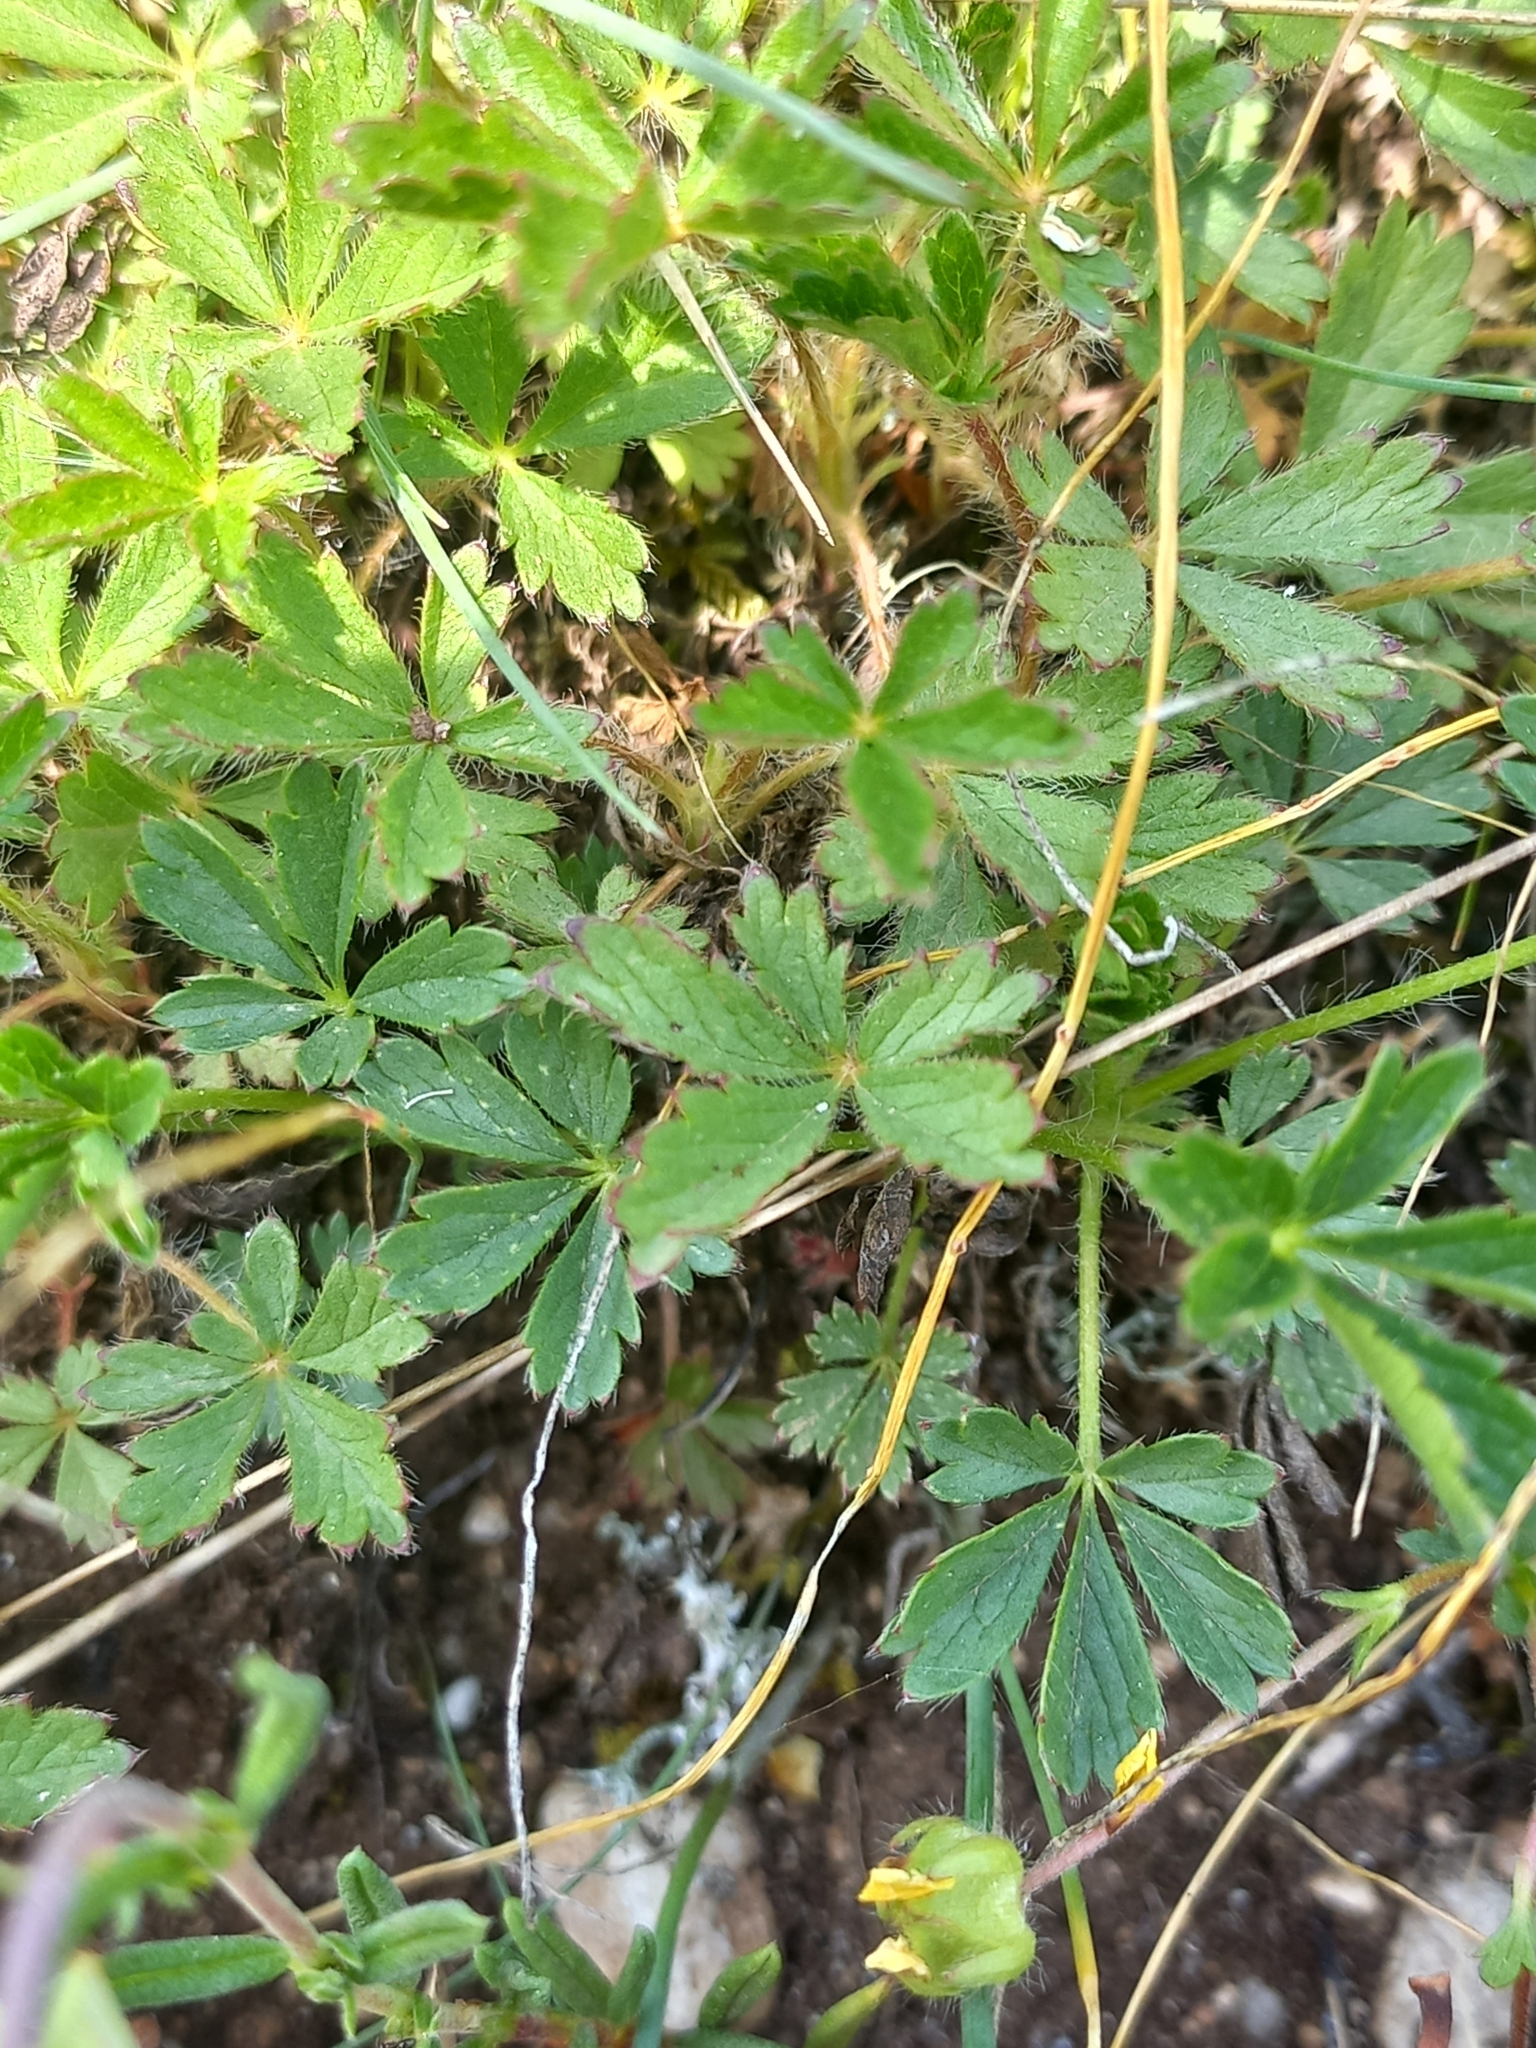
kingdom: Plantae
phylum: Tracheophyta
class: Magnoliopsida
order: Rosales
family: Rosaceae
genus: Potentilla
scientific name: Potentilla verna
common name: Spring cinquefoil
